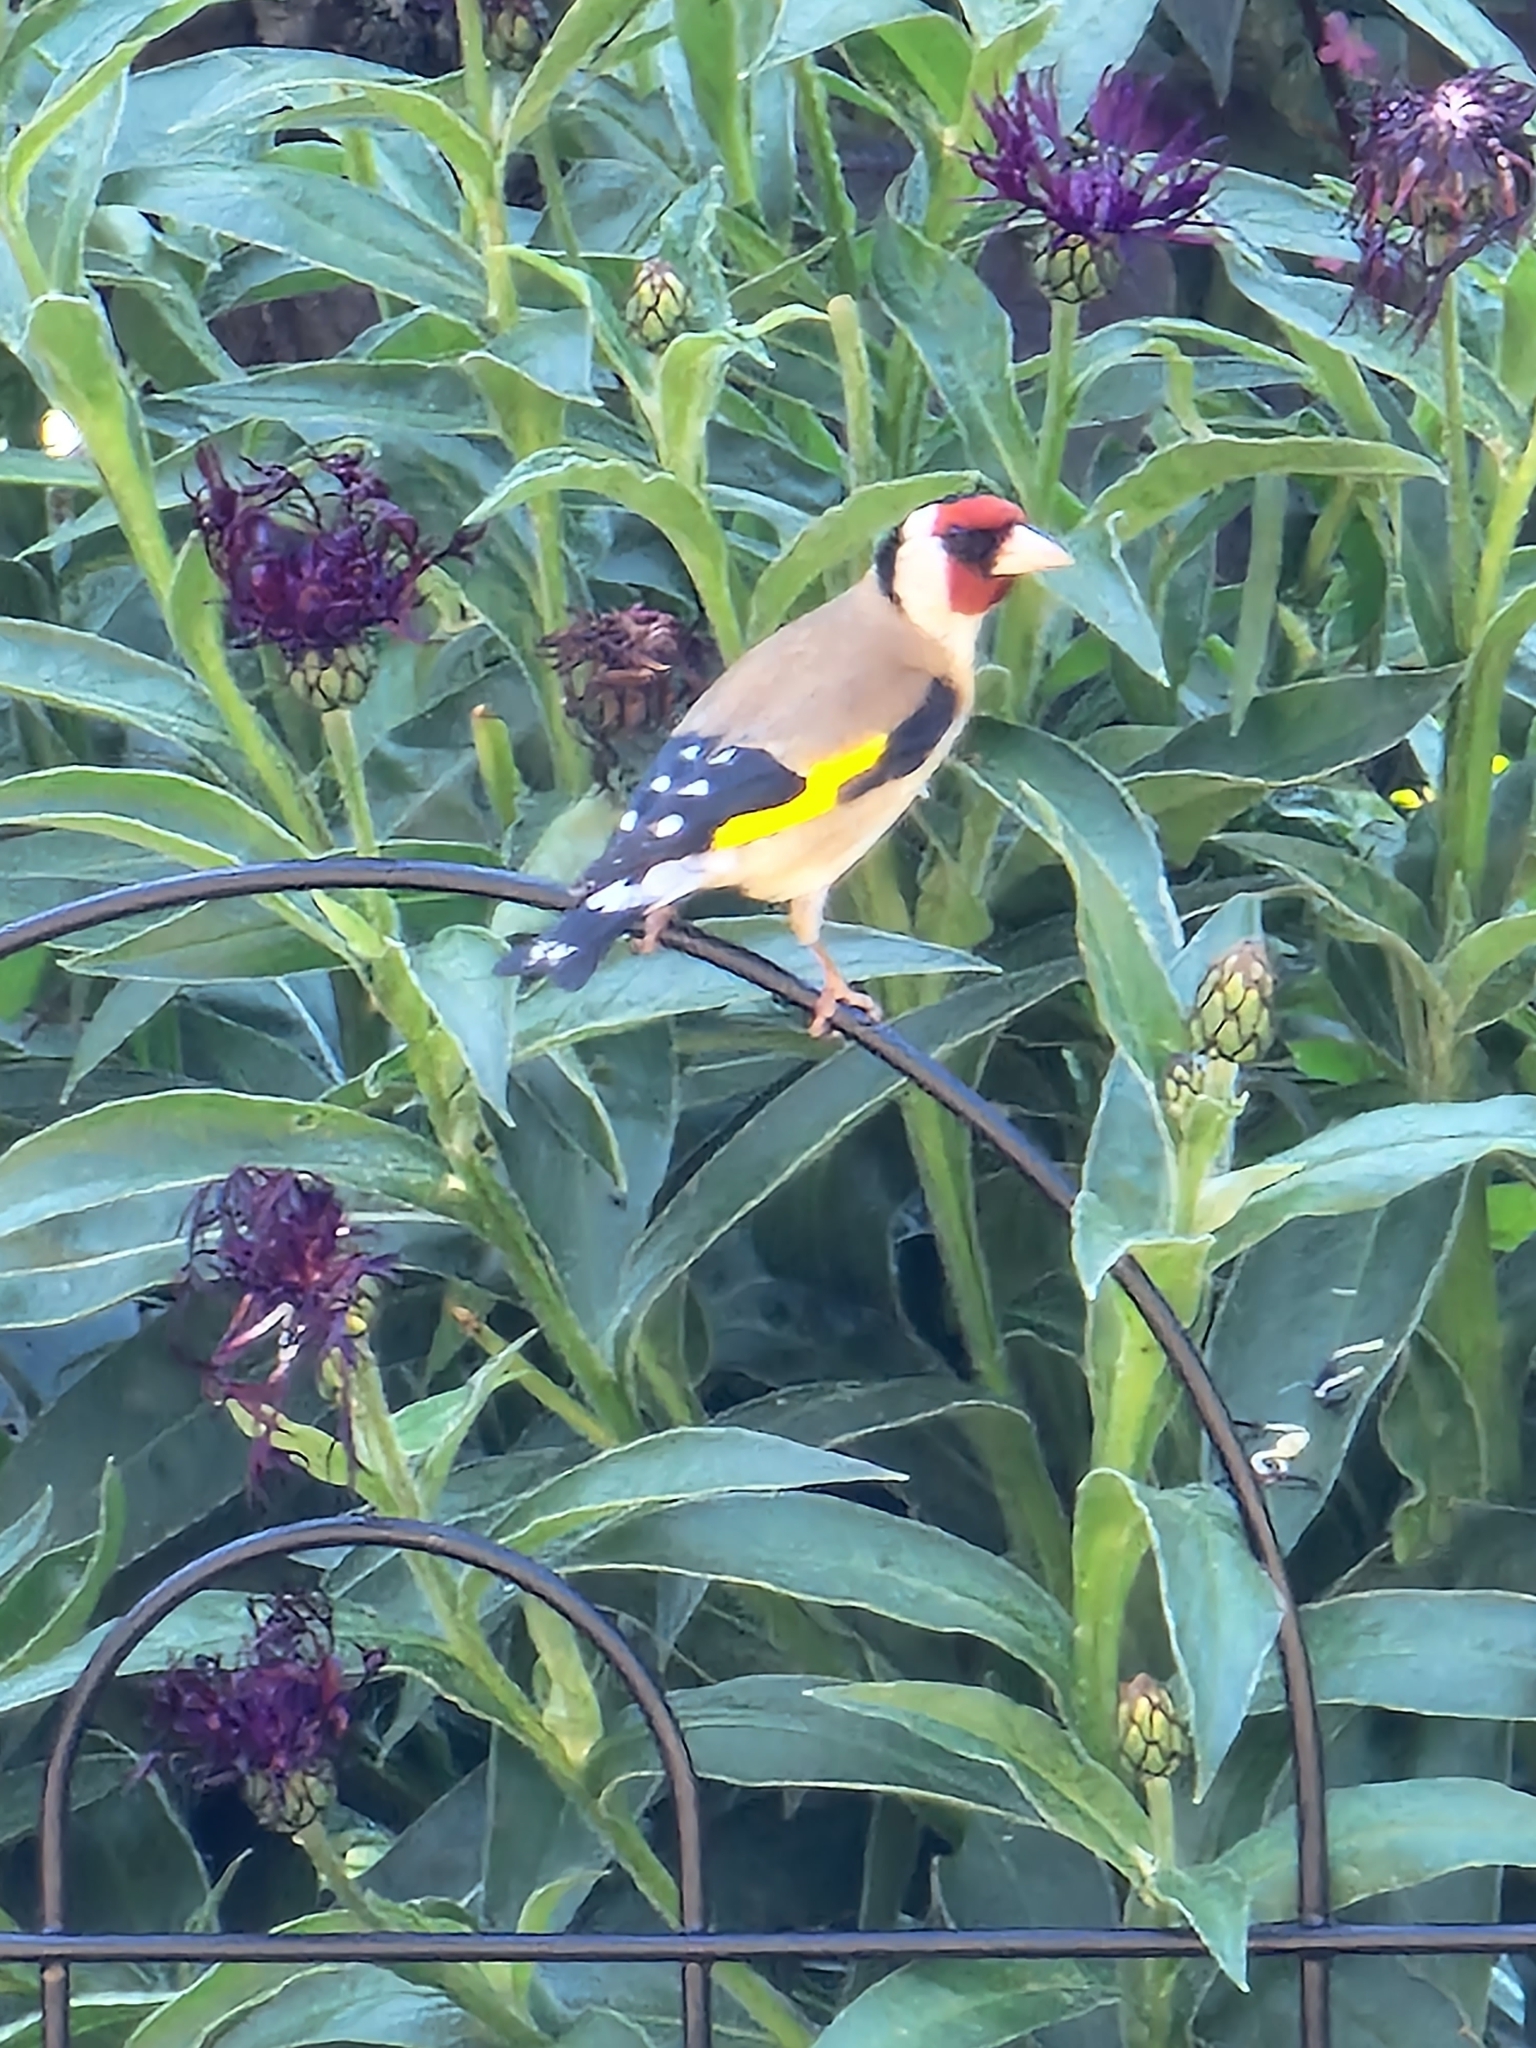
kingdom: Animalia
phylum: Chordata
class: Aves
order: Passeriformes
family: Fringillidae
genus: Carduelis
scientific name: Carduelis carduelis
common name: European goldfinch
